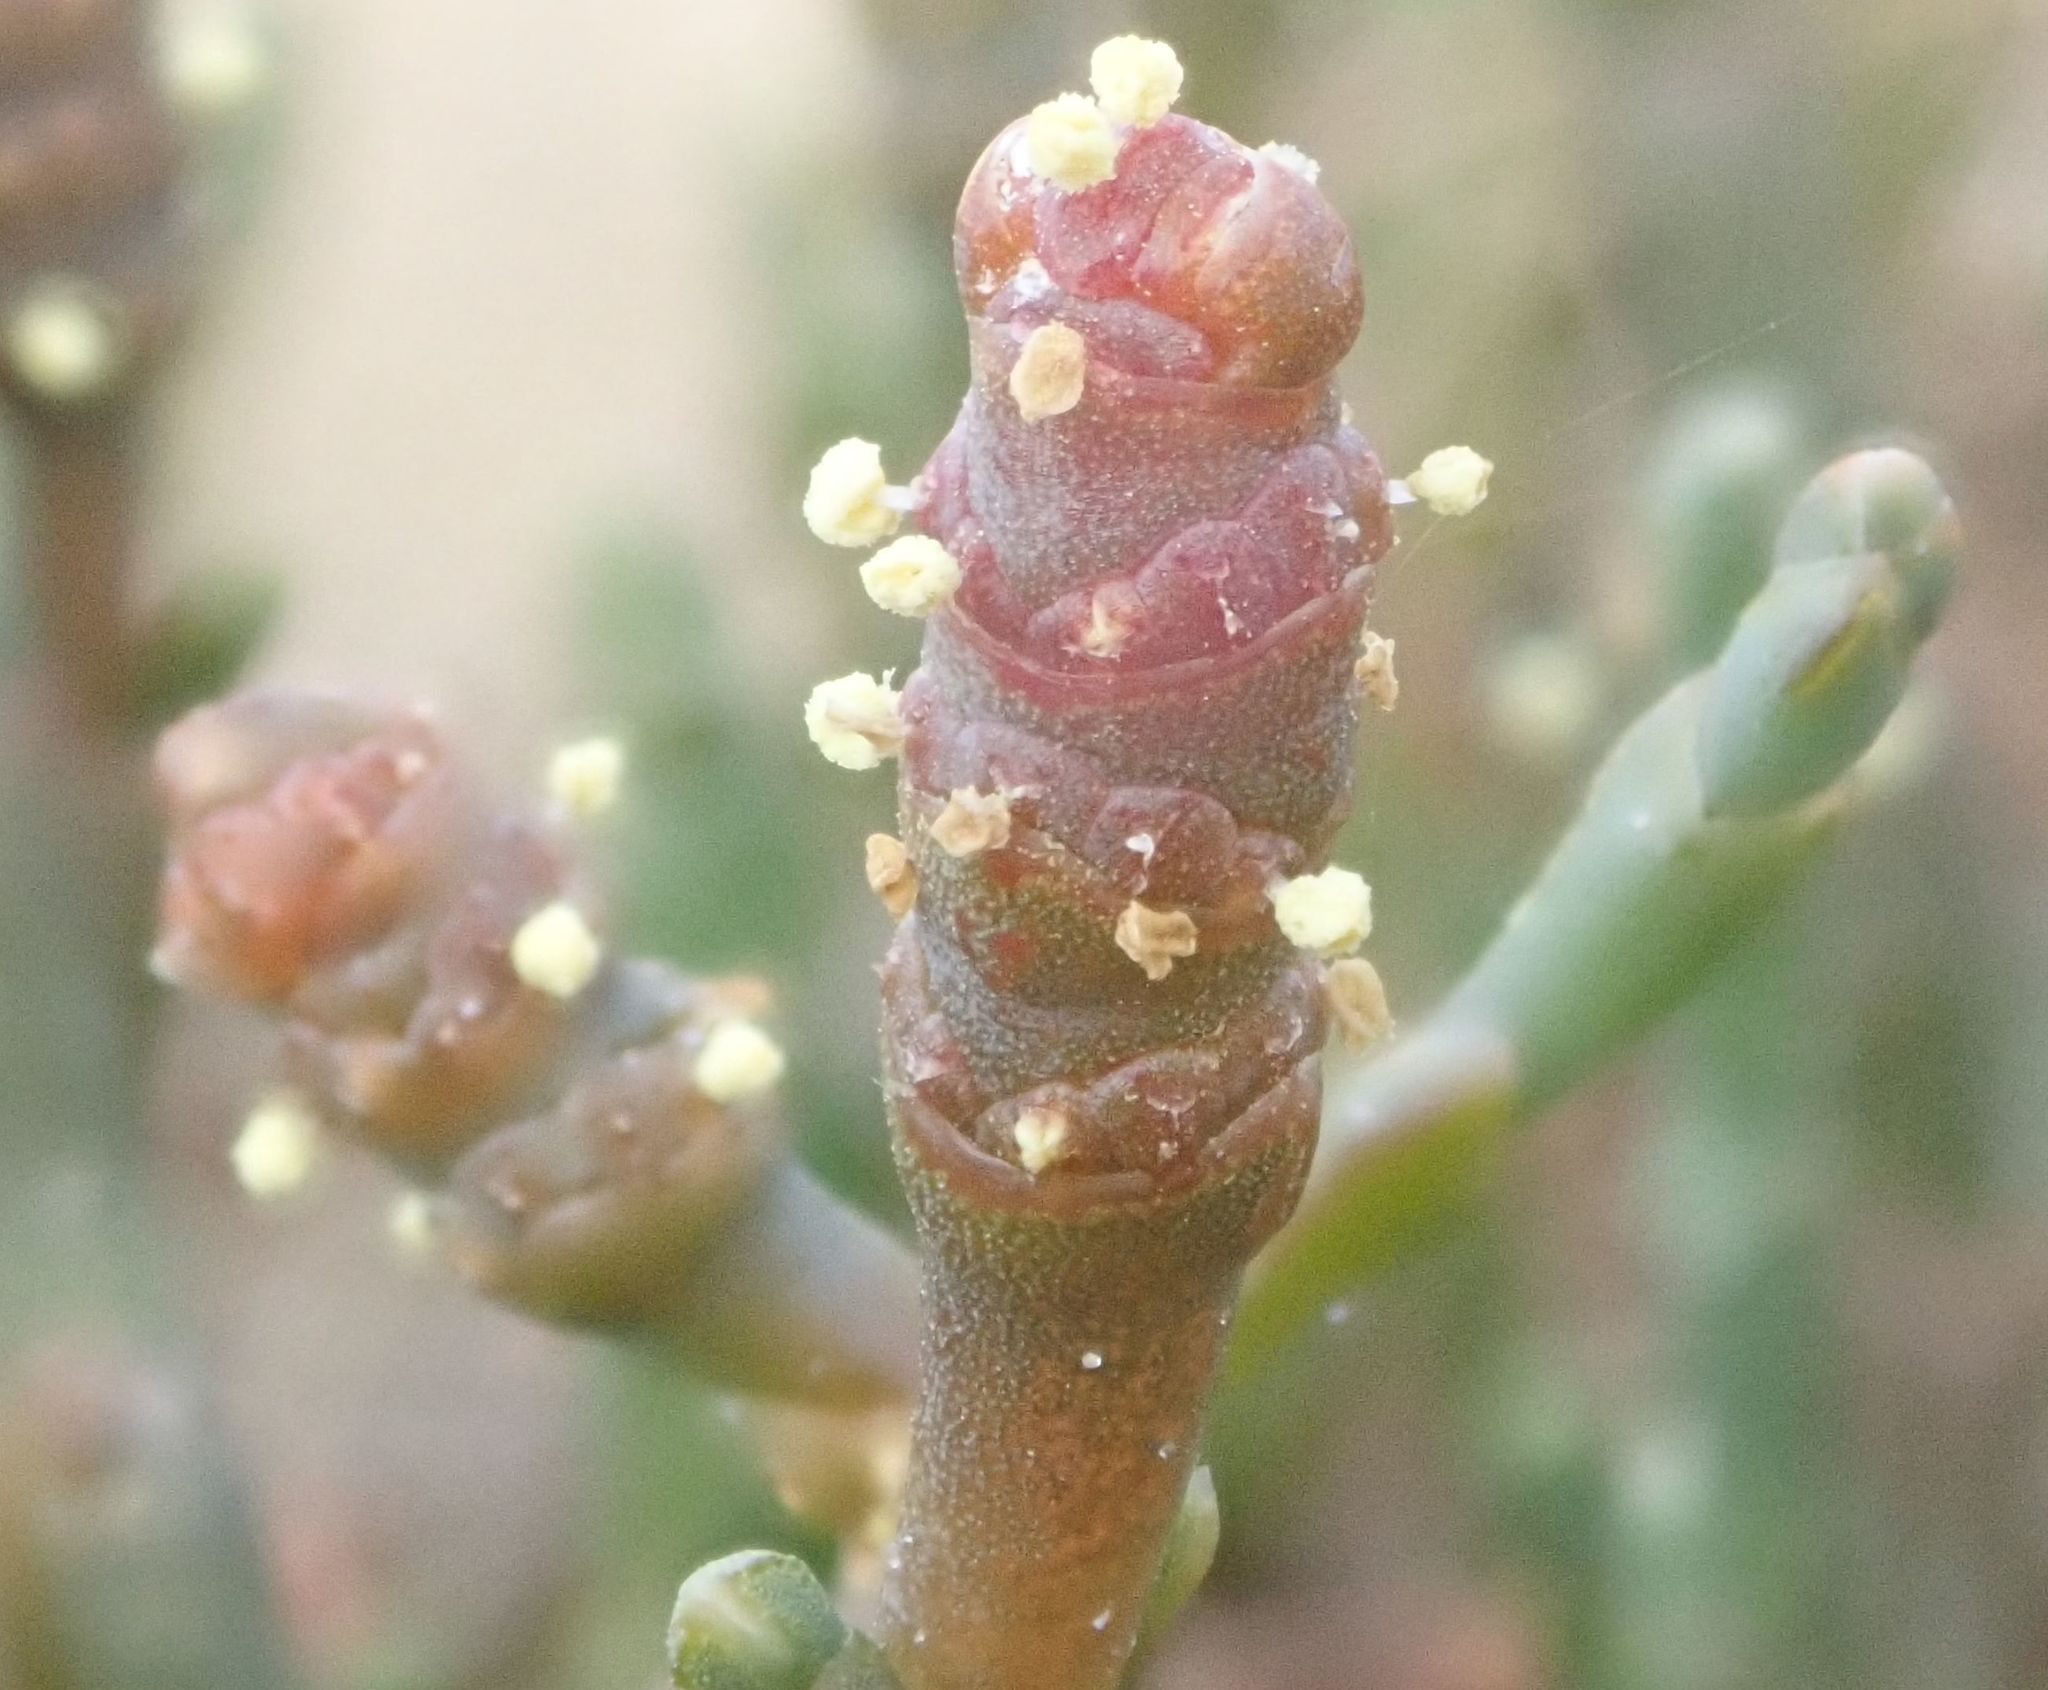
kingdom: Plantae
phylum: Tracheophyta
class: Magnoliopsida
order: Caryophyllales
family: Amaranthaceae
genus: Salicornia
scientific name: Salicornia quinqueflora
